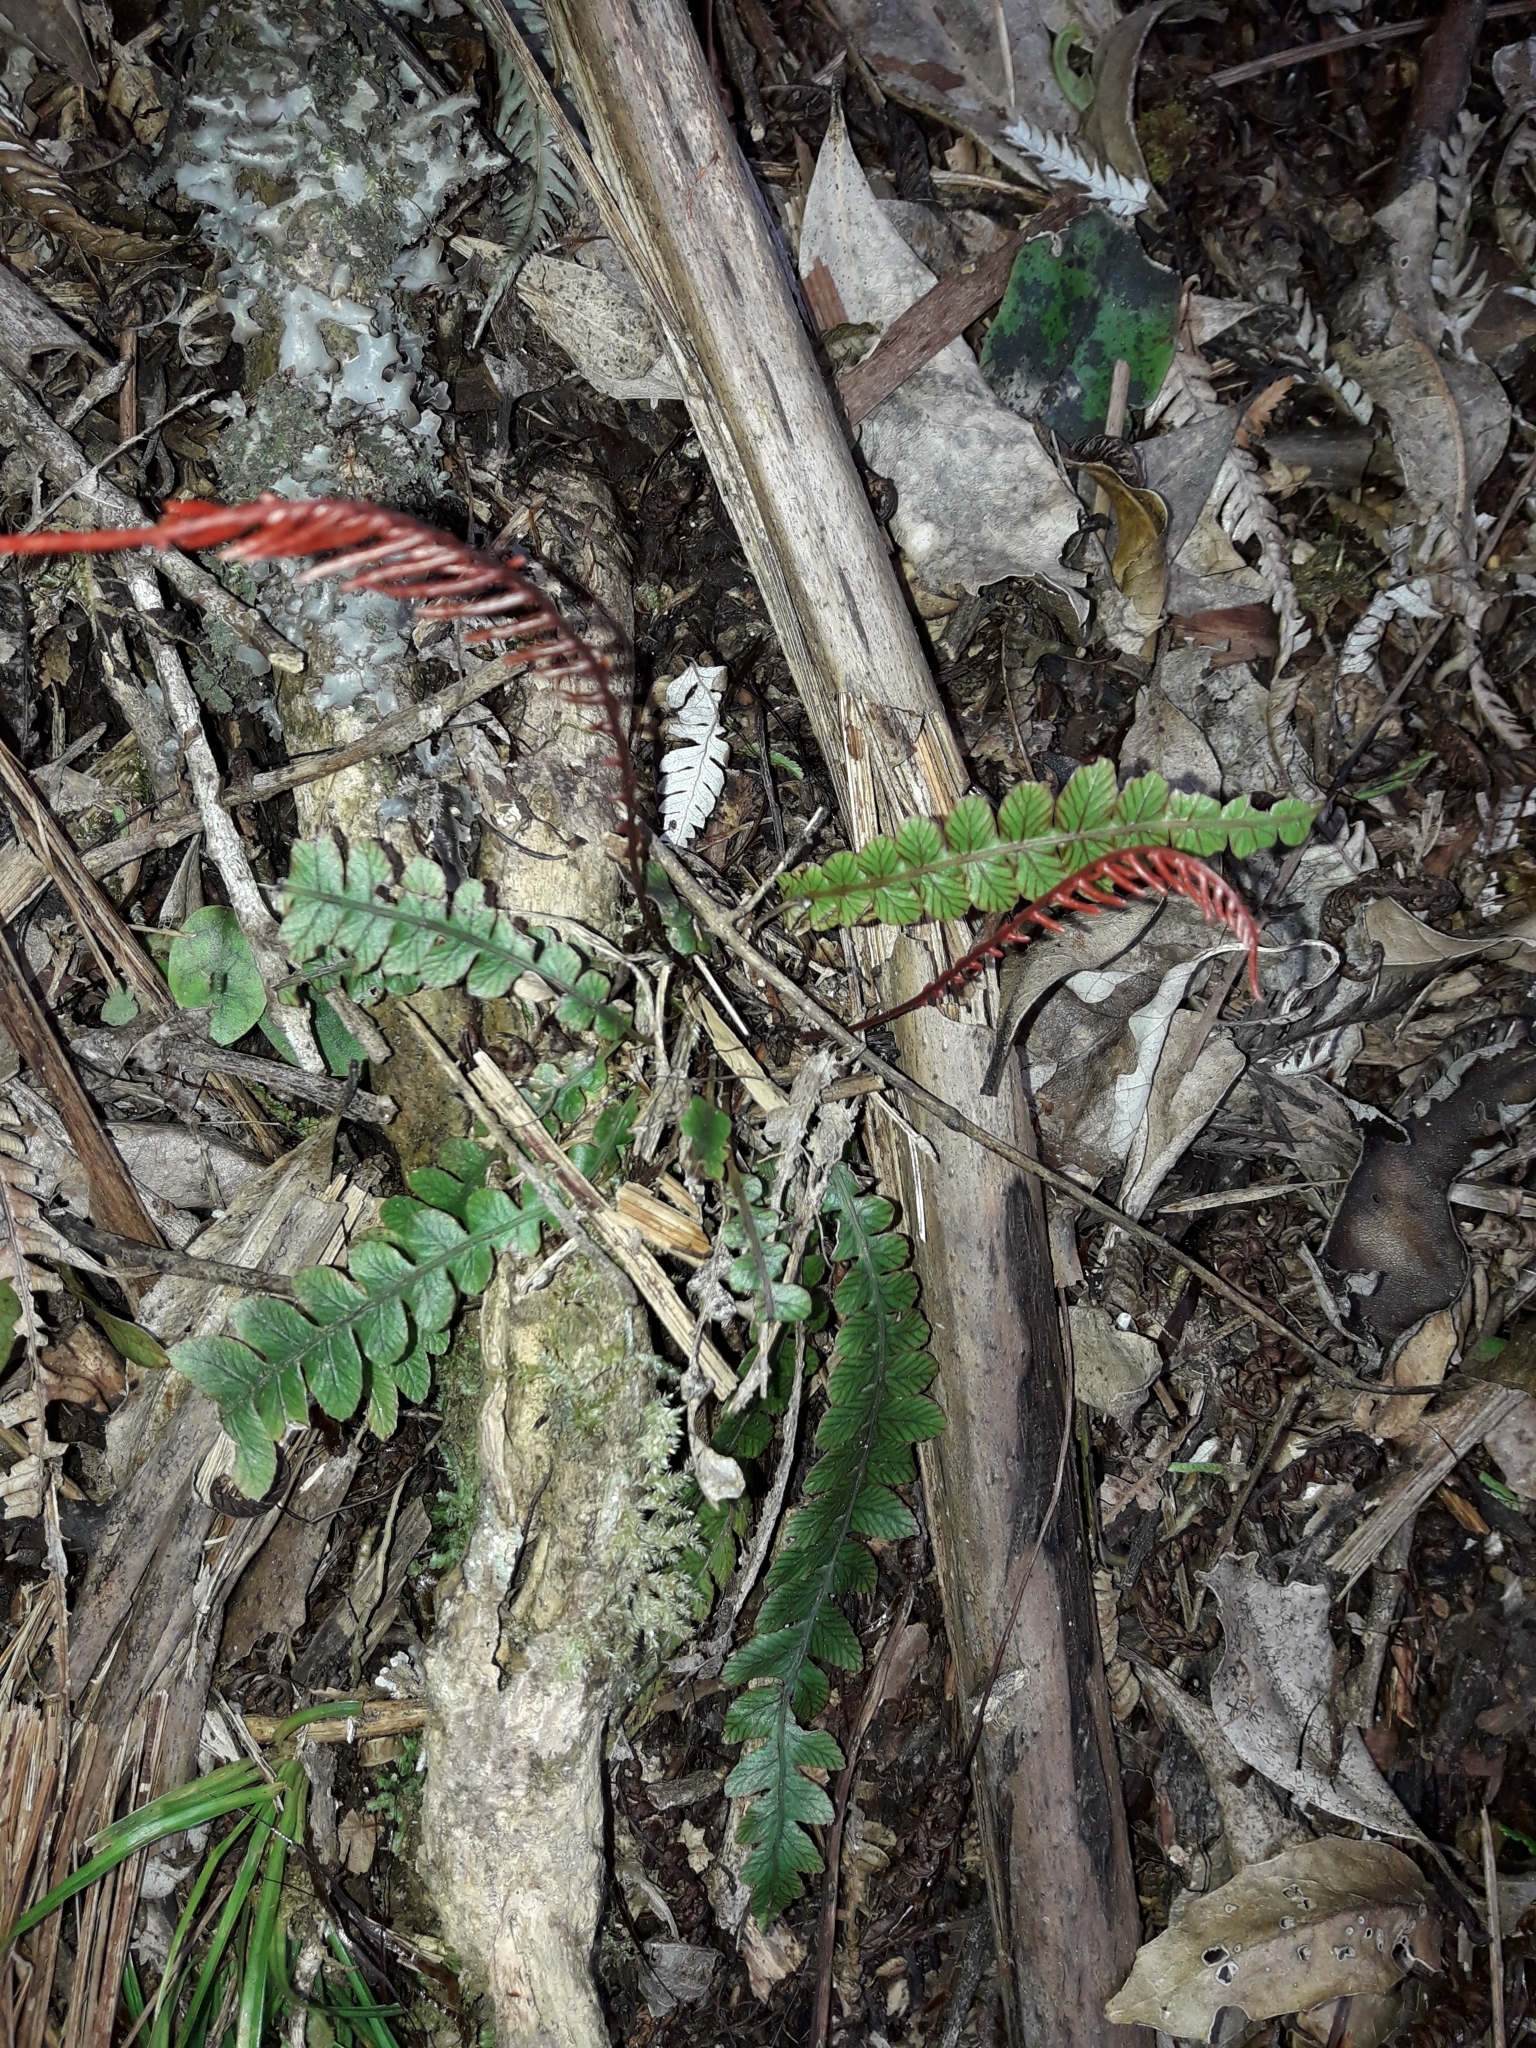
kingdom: Plantae
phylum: Tracheophyta
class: Polypodiopsida
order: Polypodiales
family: Blechnaceae
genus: Austroblechnum
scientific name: Austroblechnum membranaceum
